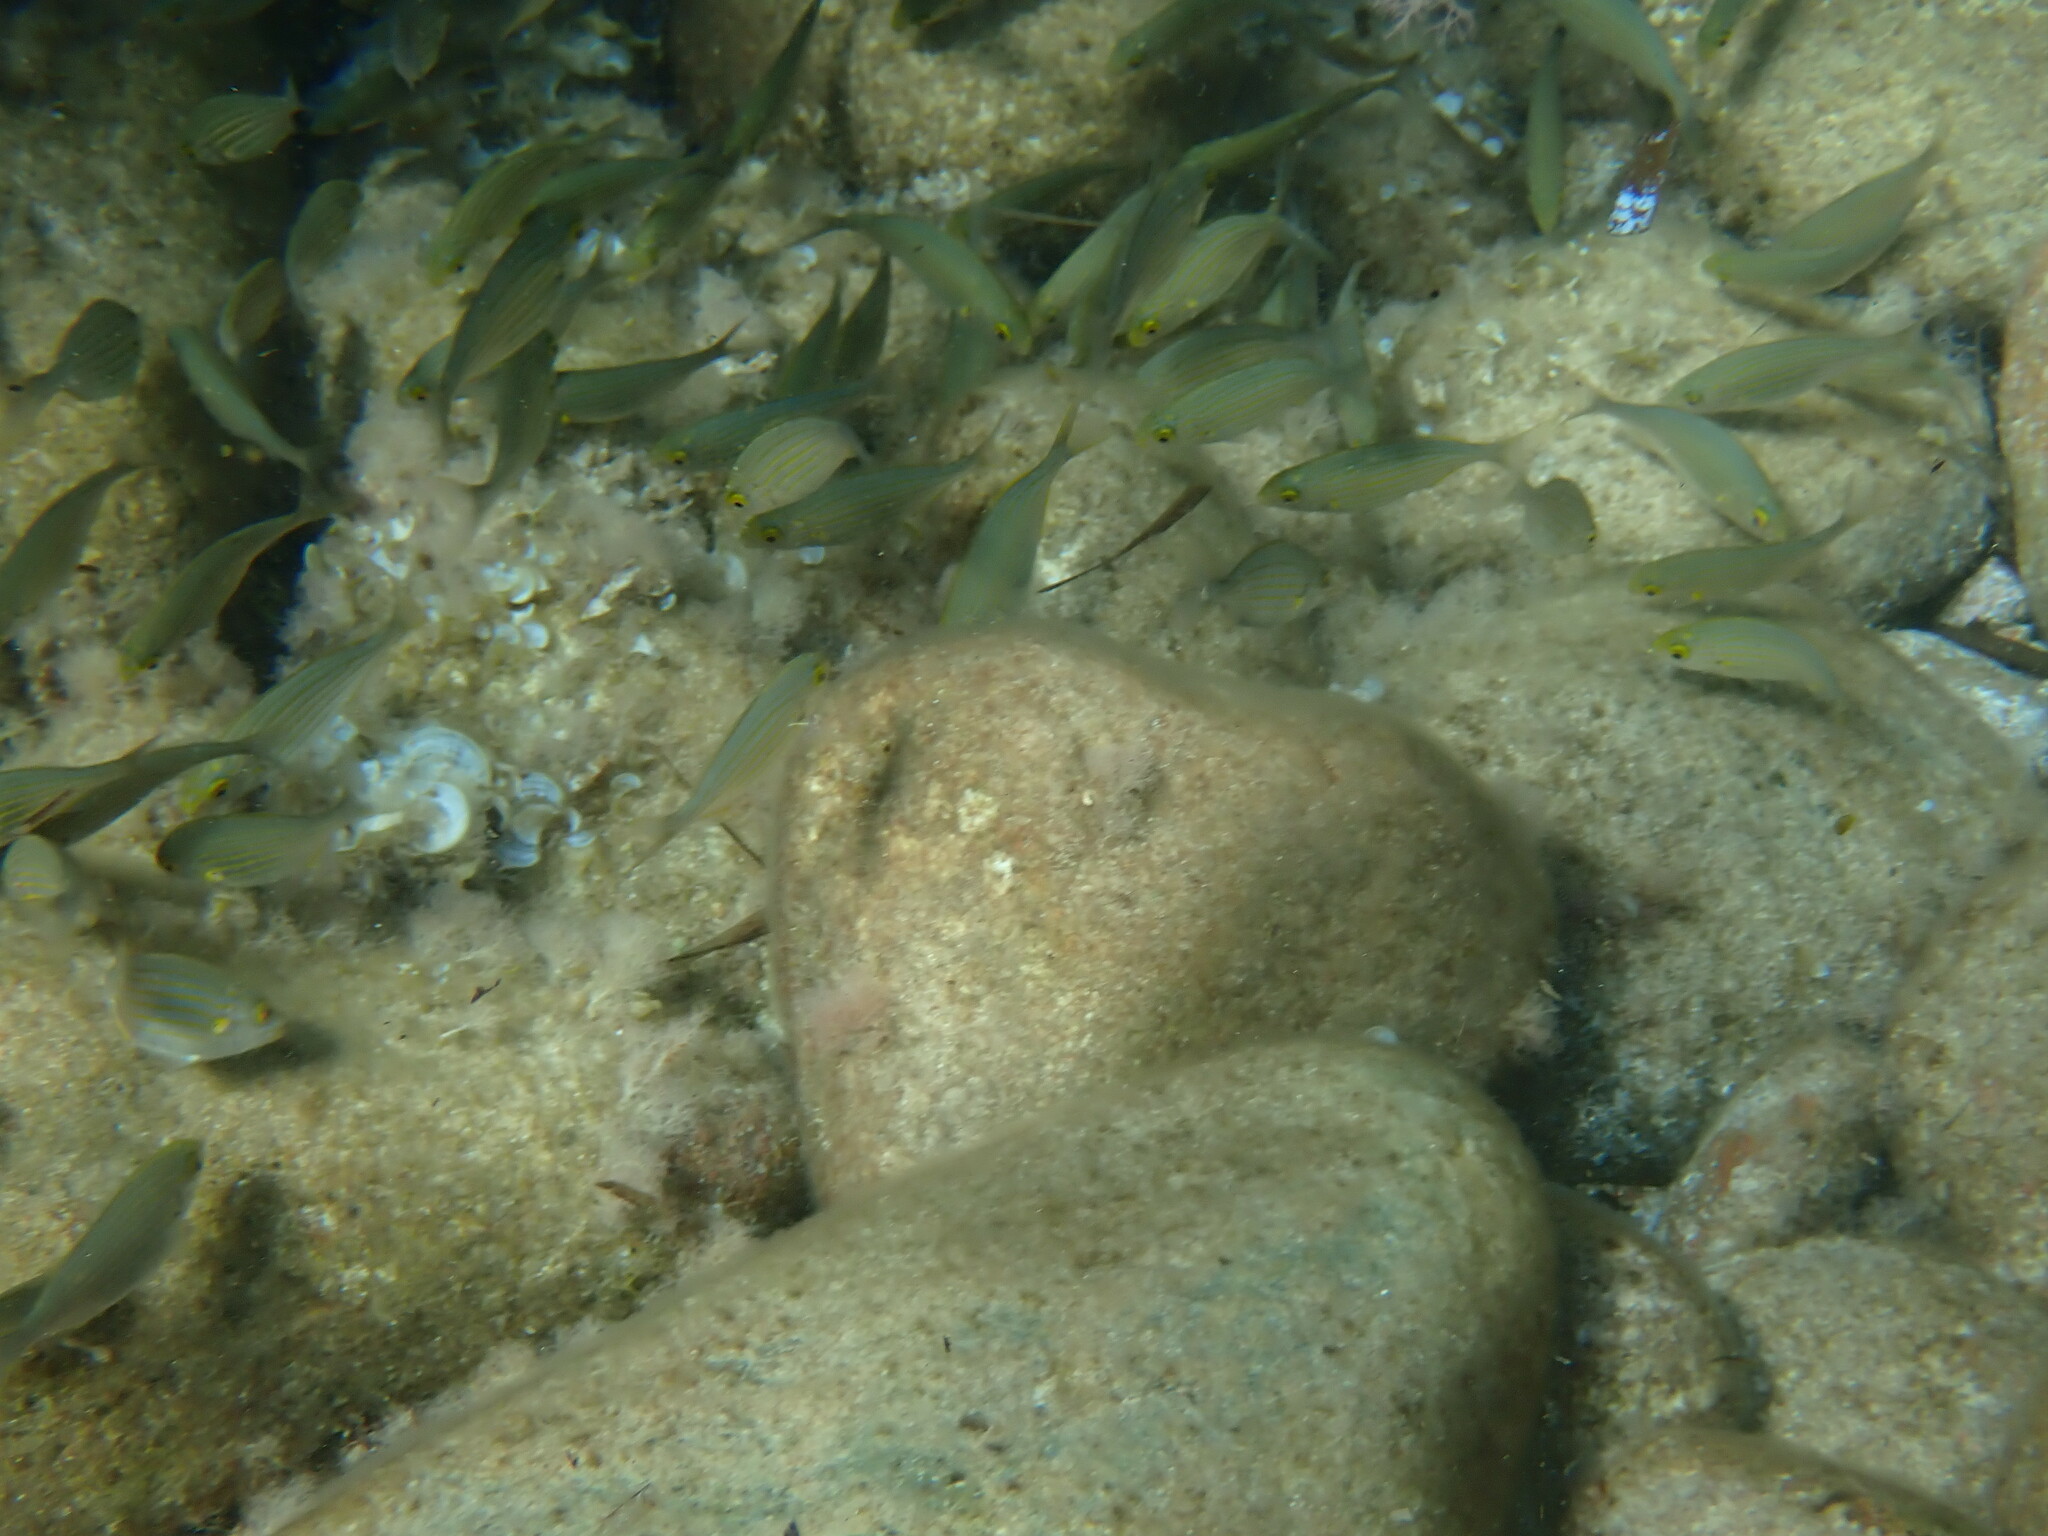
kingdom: Animalia
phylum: Chordata
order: Perciformes
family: Sparidae
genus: Sarpa
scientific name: Sarpa salpa
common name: Salema
